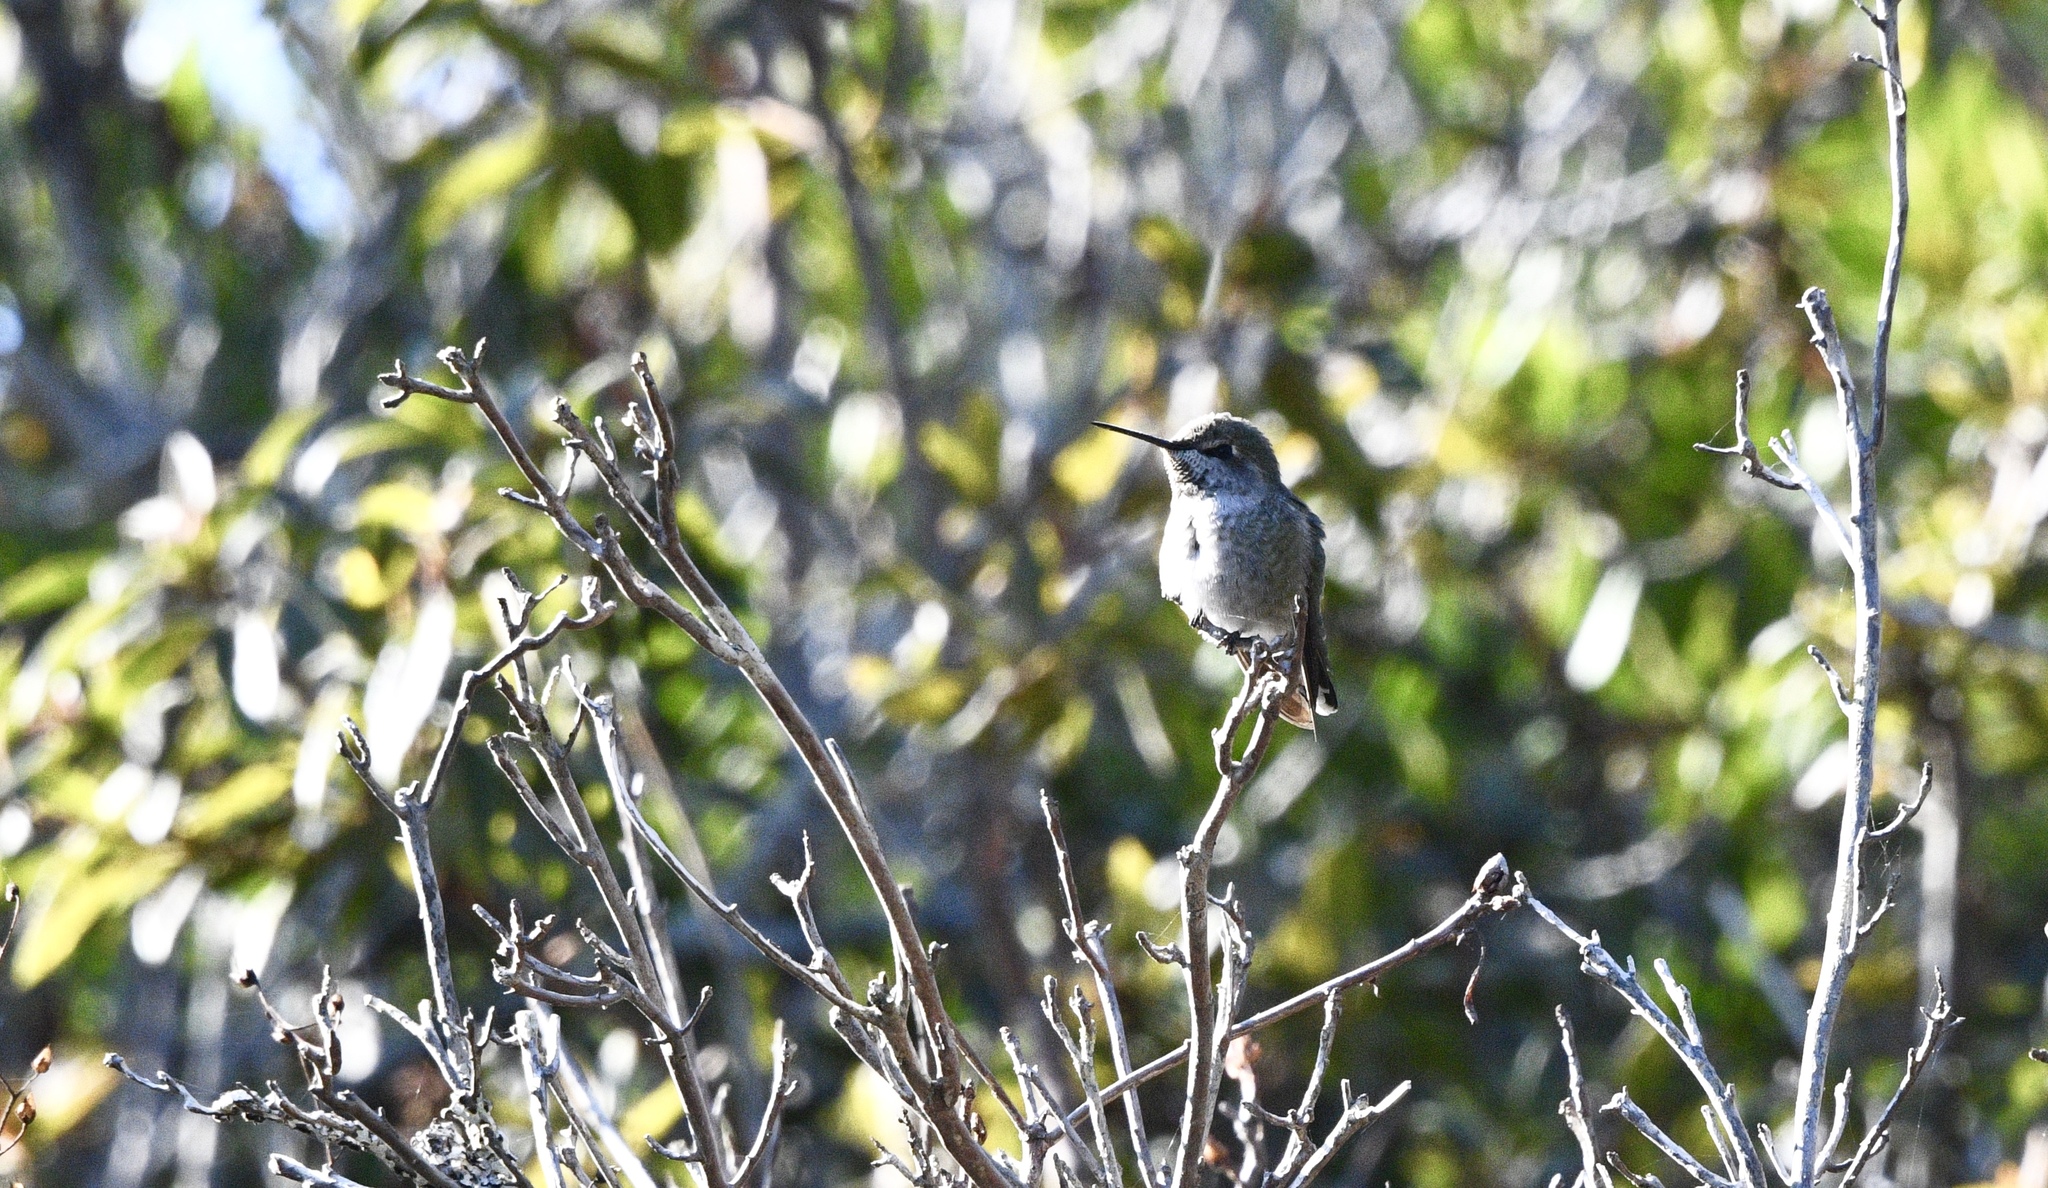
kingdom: Animalia
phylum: Chordata
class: Aves
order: Apodiformes
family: Trochilidae
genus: Calypte
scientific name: Calypte anna
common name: Anna's hummingbird
